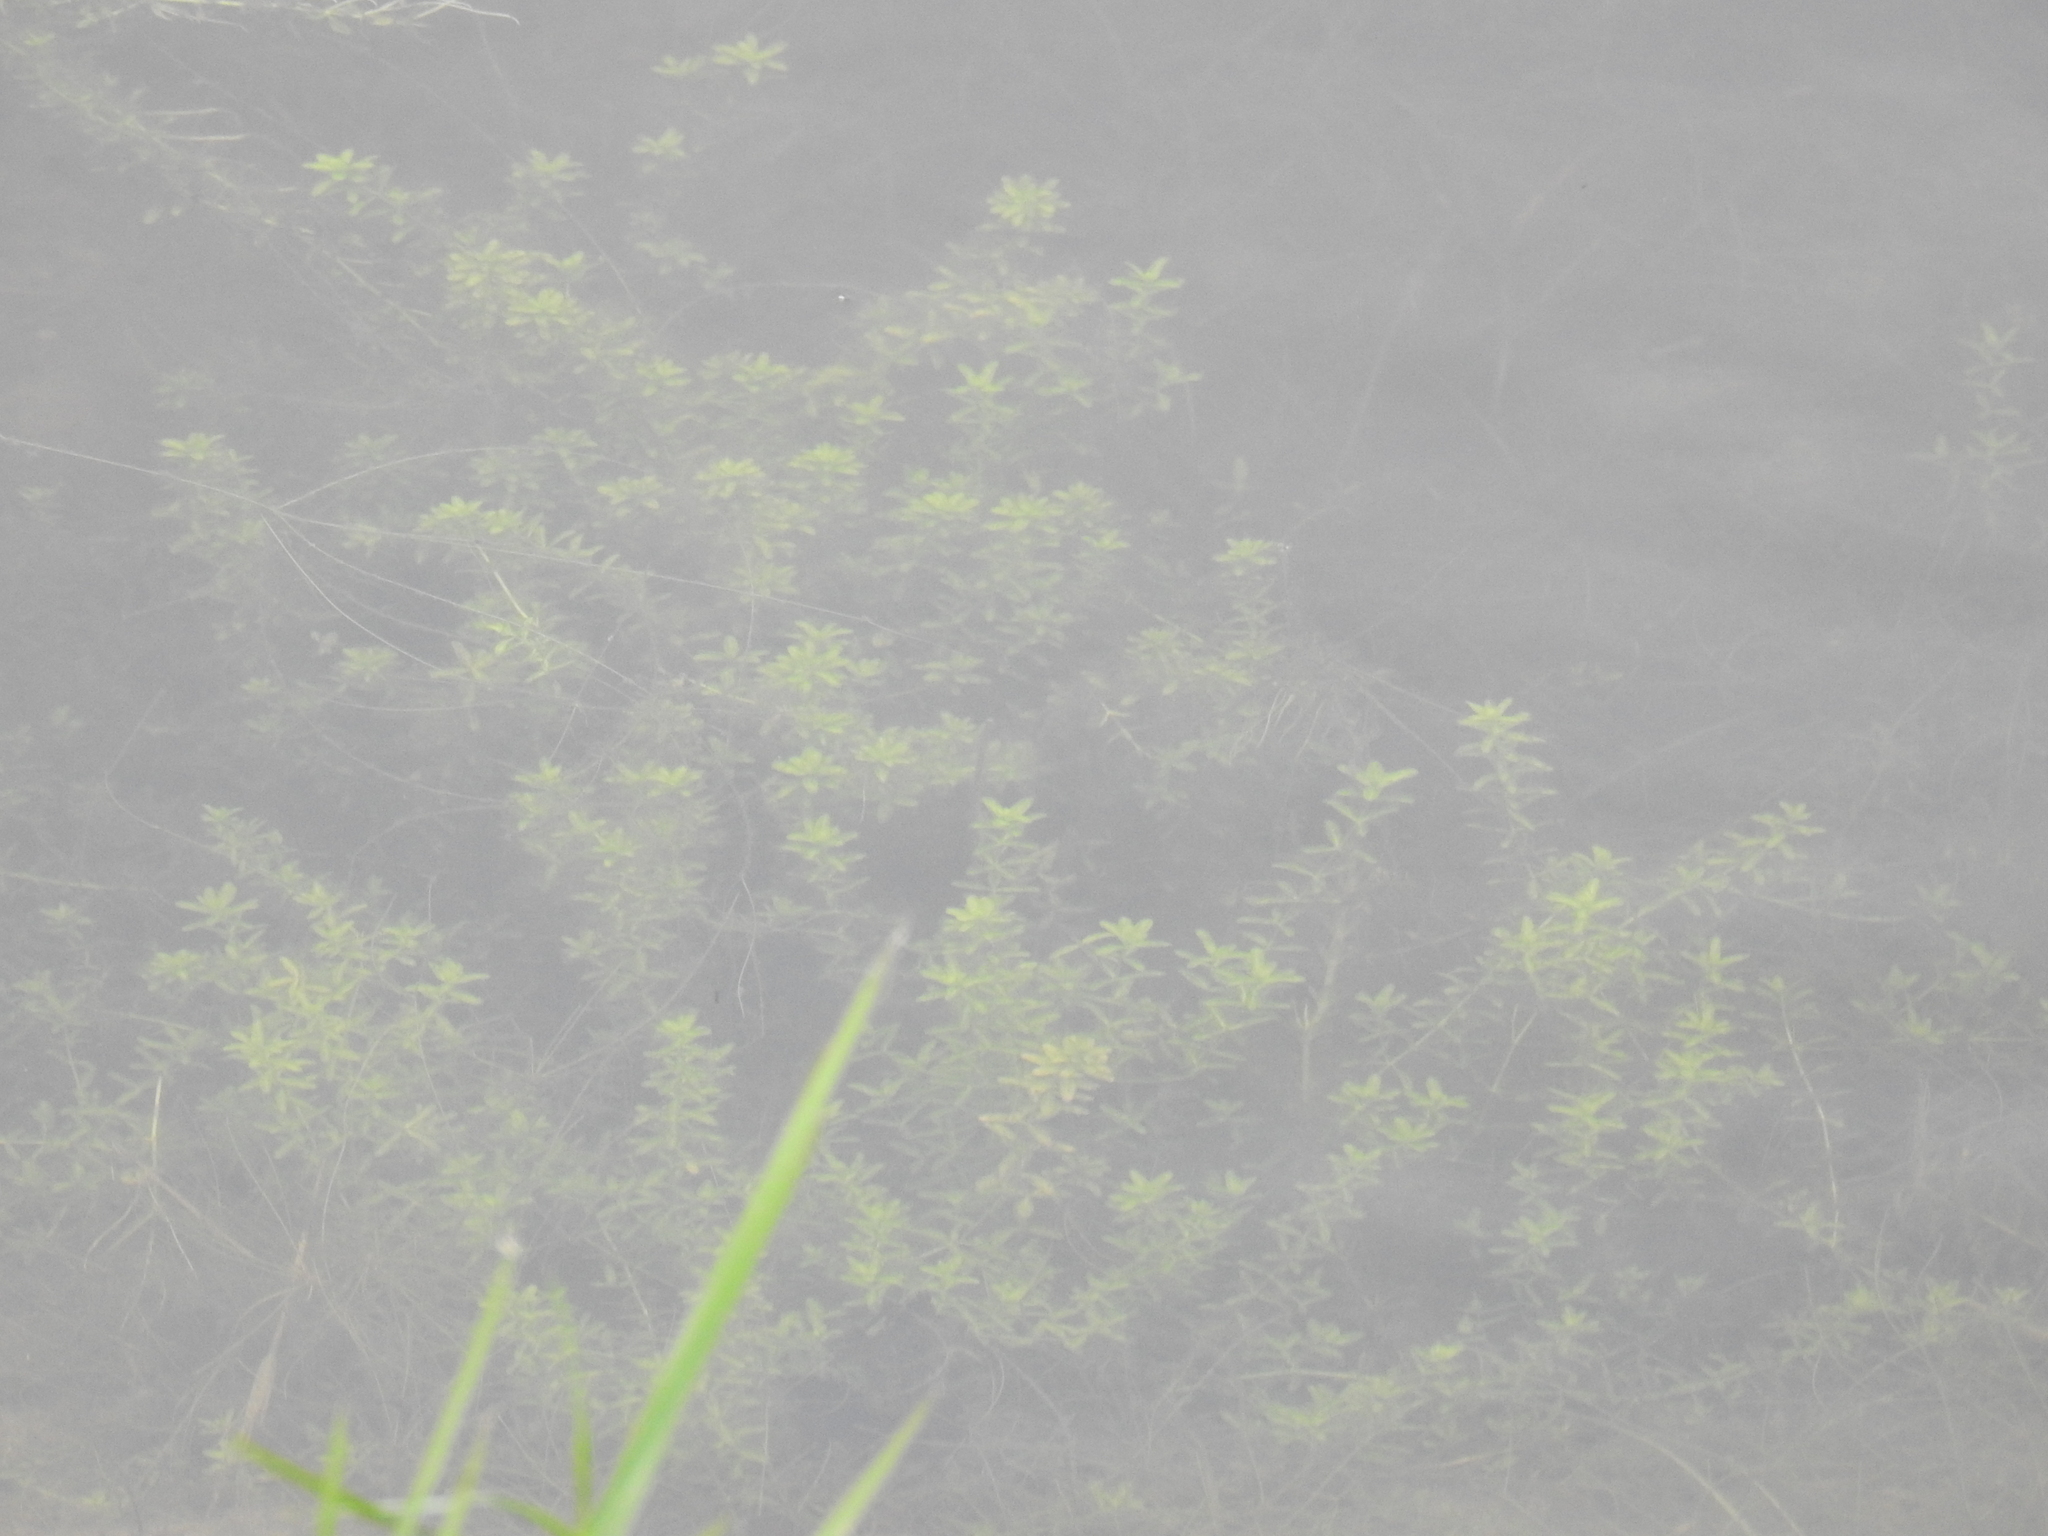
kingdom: Plantae
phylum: Tracheophyta
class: Magnoliopsida
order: Lamiales
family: Linderniaceae
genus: Micranthemum
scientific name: Micranthemum glomeratum
